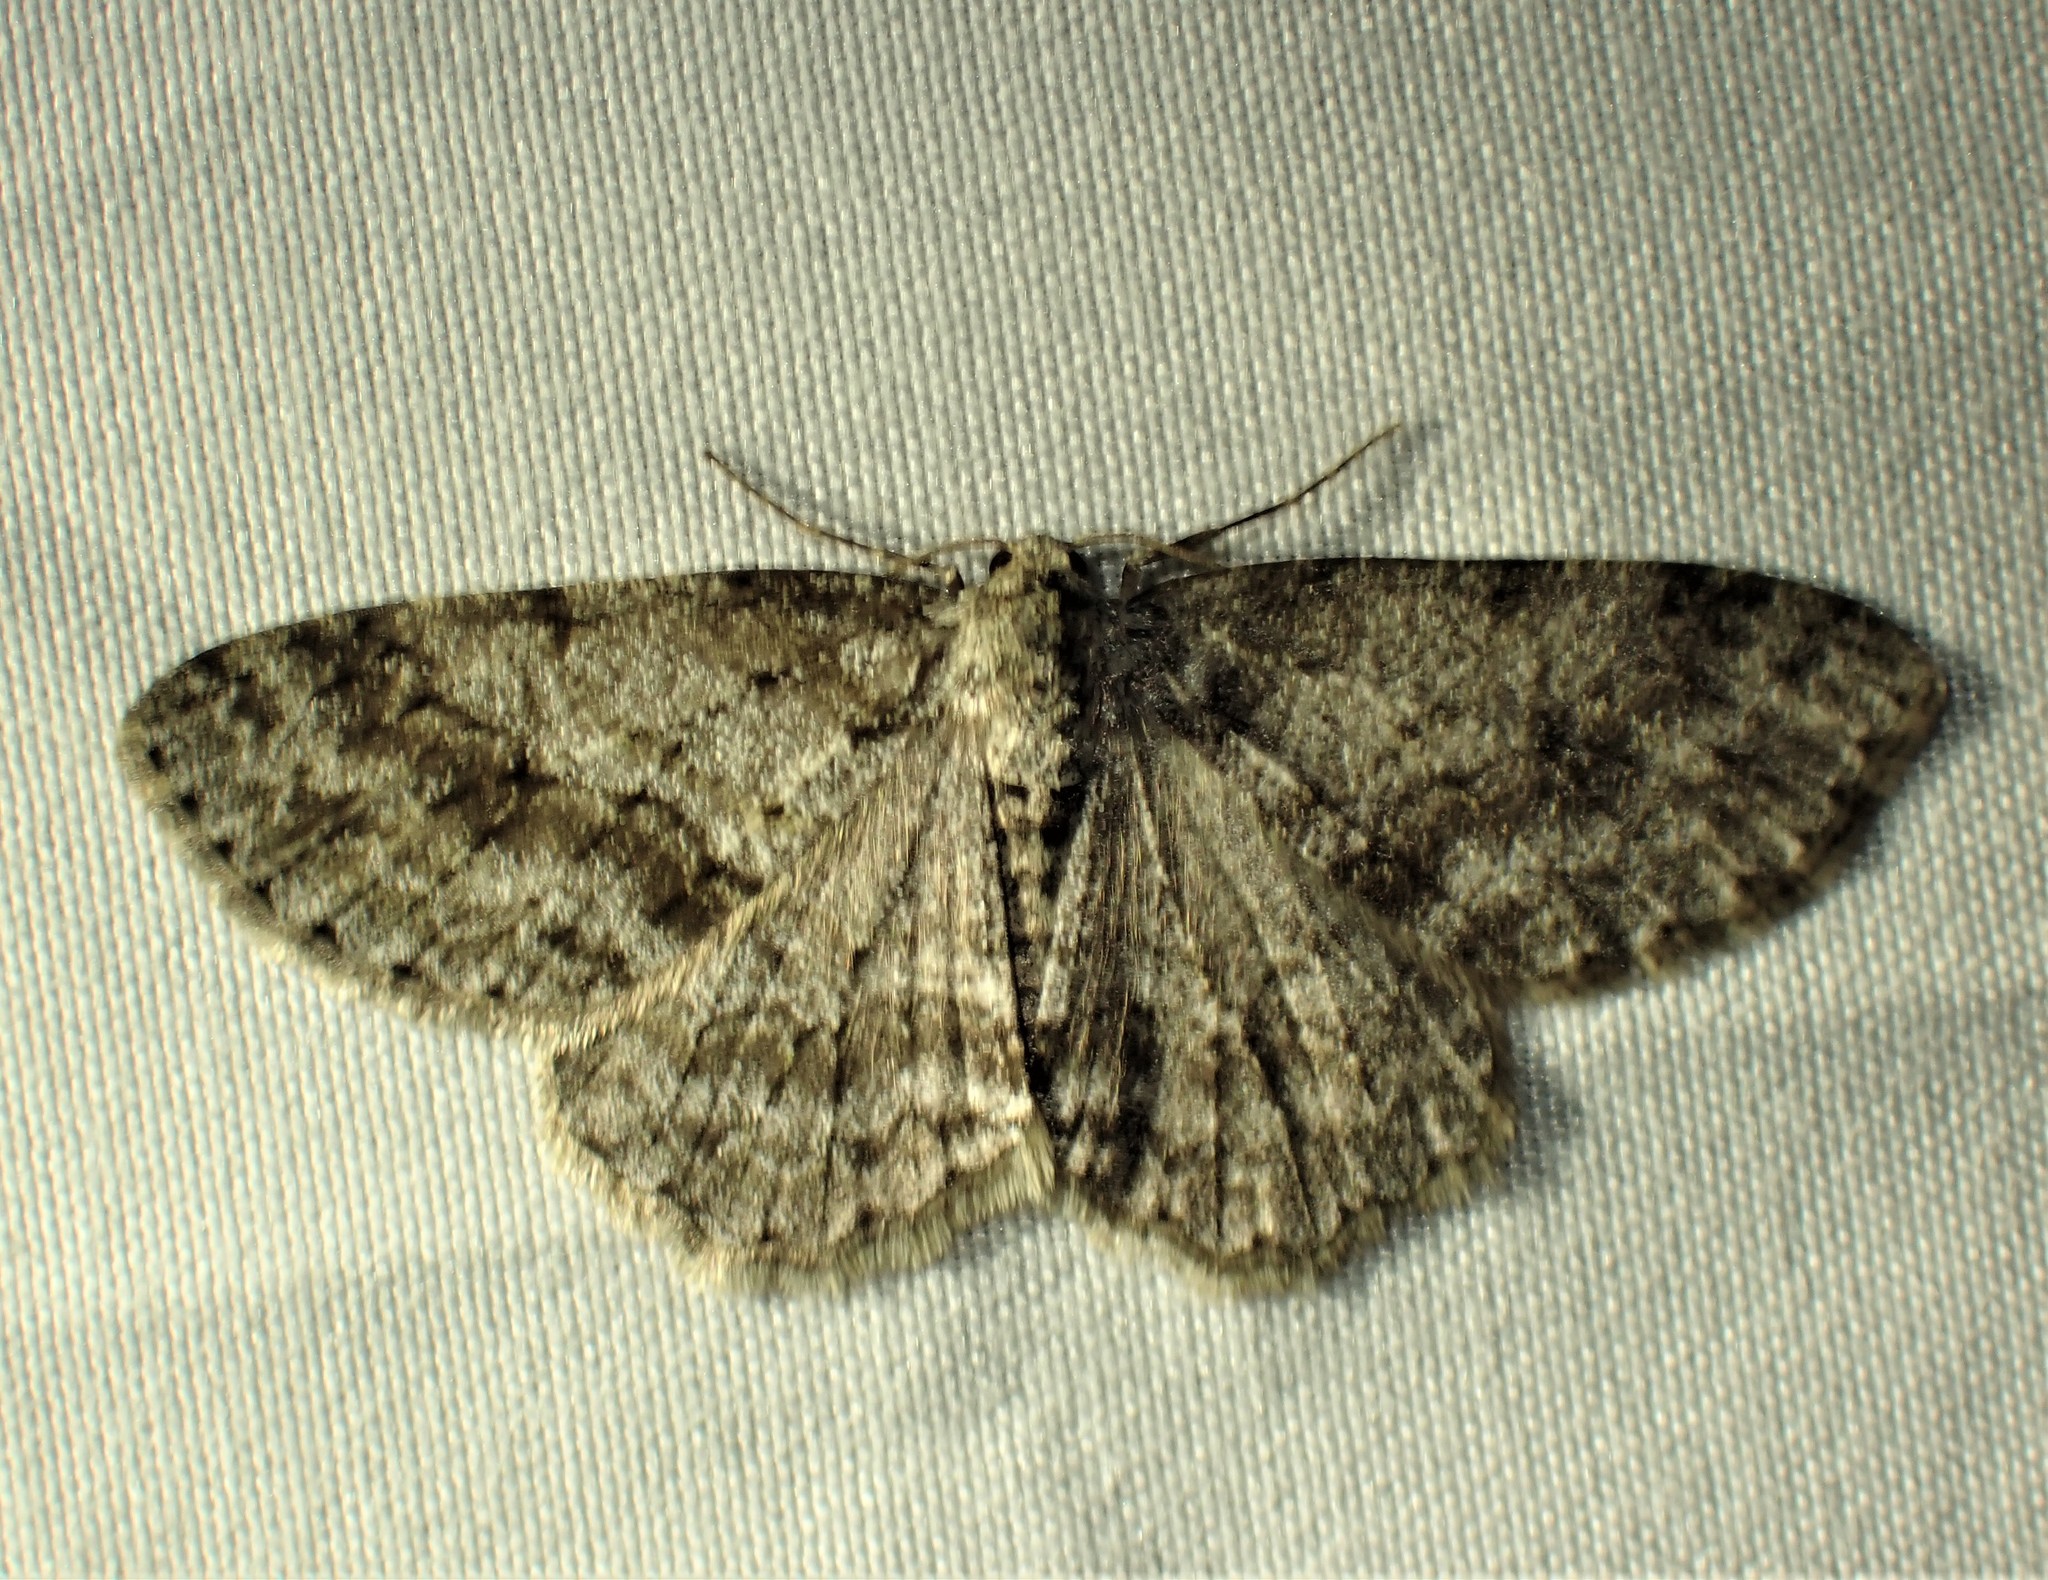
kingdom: Animalia
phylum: Arthropoda
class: Insecta
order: Lepidoptera
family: Geometridae
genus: Ectropis
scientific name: Ectropis crepuscularia
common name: Engrailed
